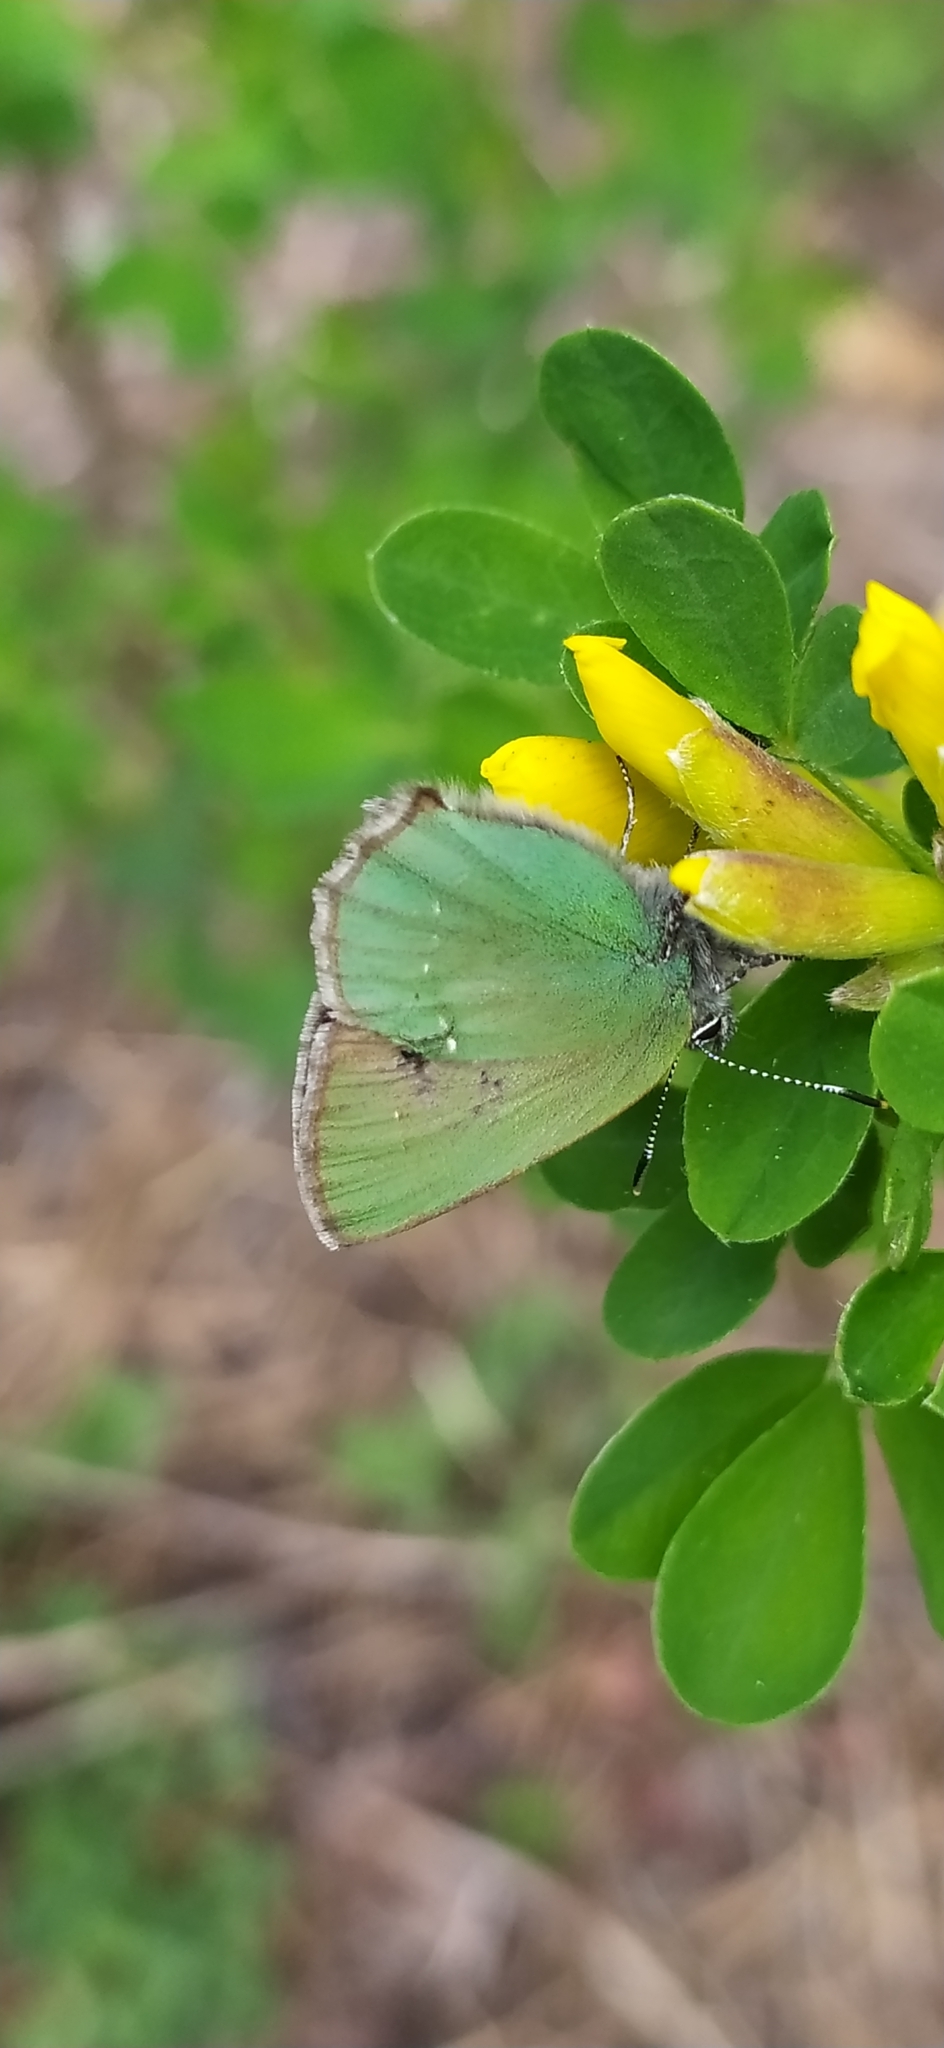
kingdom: Animalia
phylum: Arthropoda
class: Insecta
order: Lepidoptera
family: Lycaenidae
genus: Callophrys
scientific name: Callophrys rubi
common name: Green hairstreak
